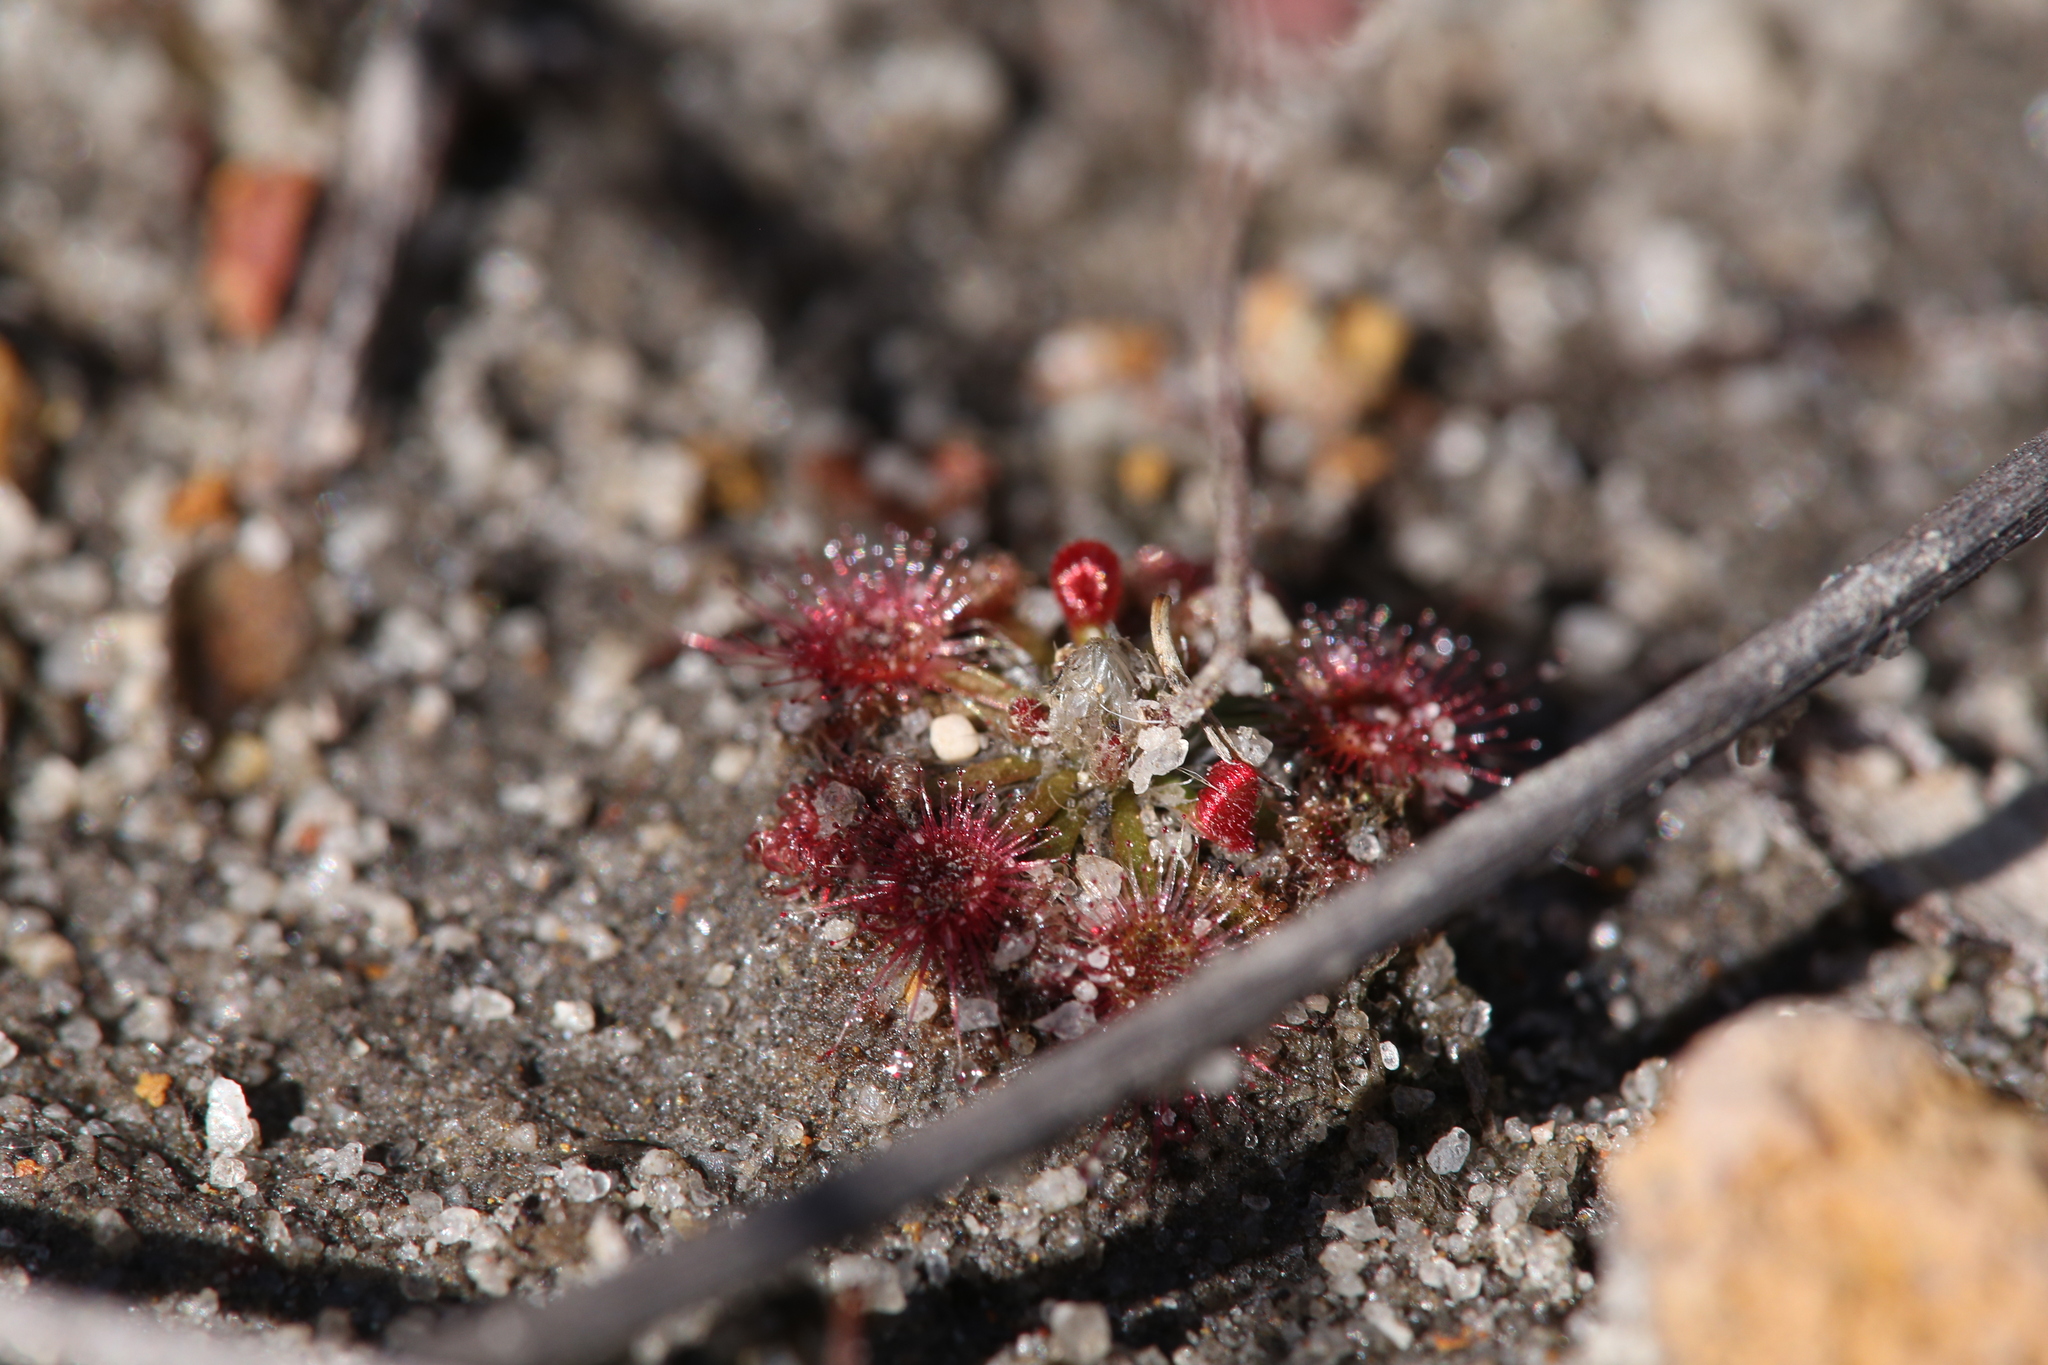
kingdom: Plantae
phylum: Tracheophyta
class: Magnoliopsida
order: Caryophyllales
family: Droseraceae
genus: Drosera
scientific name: Drosera coomallo
